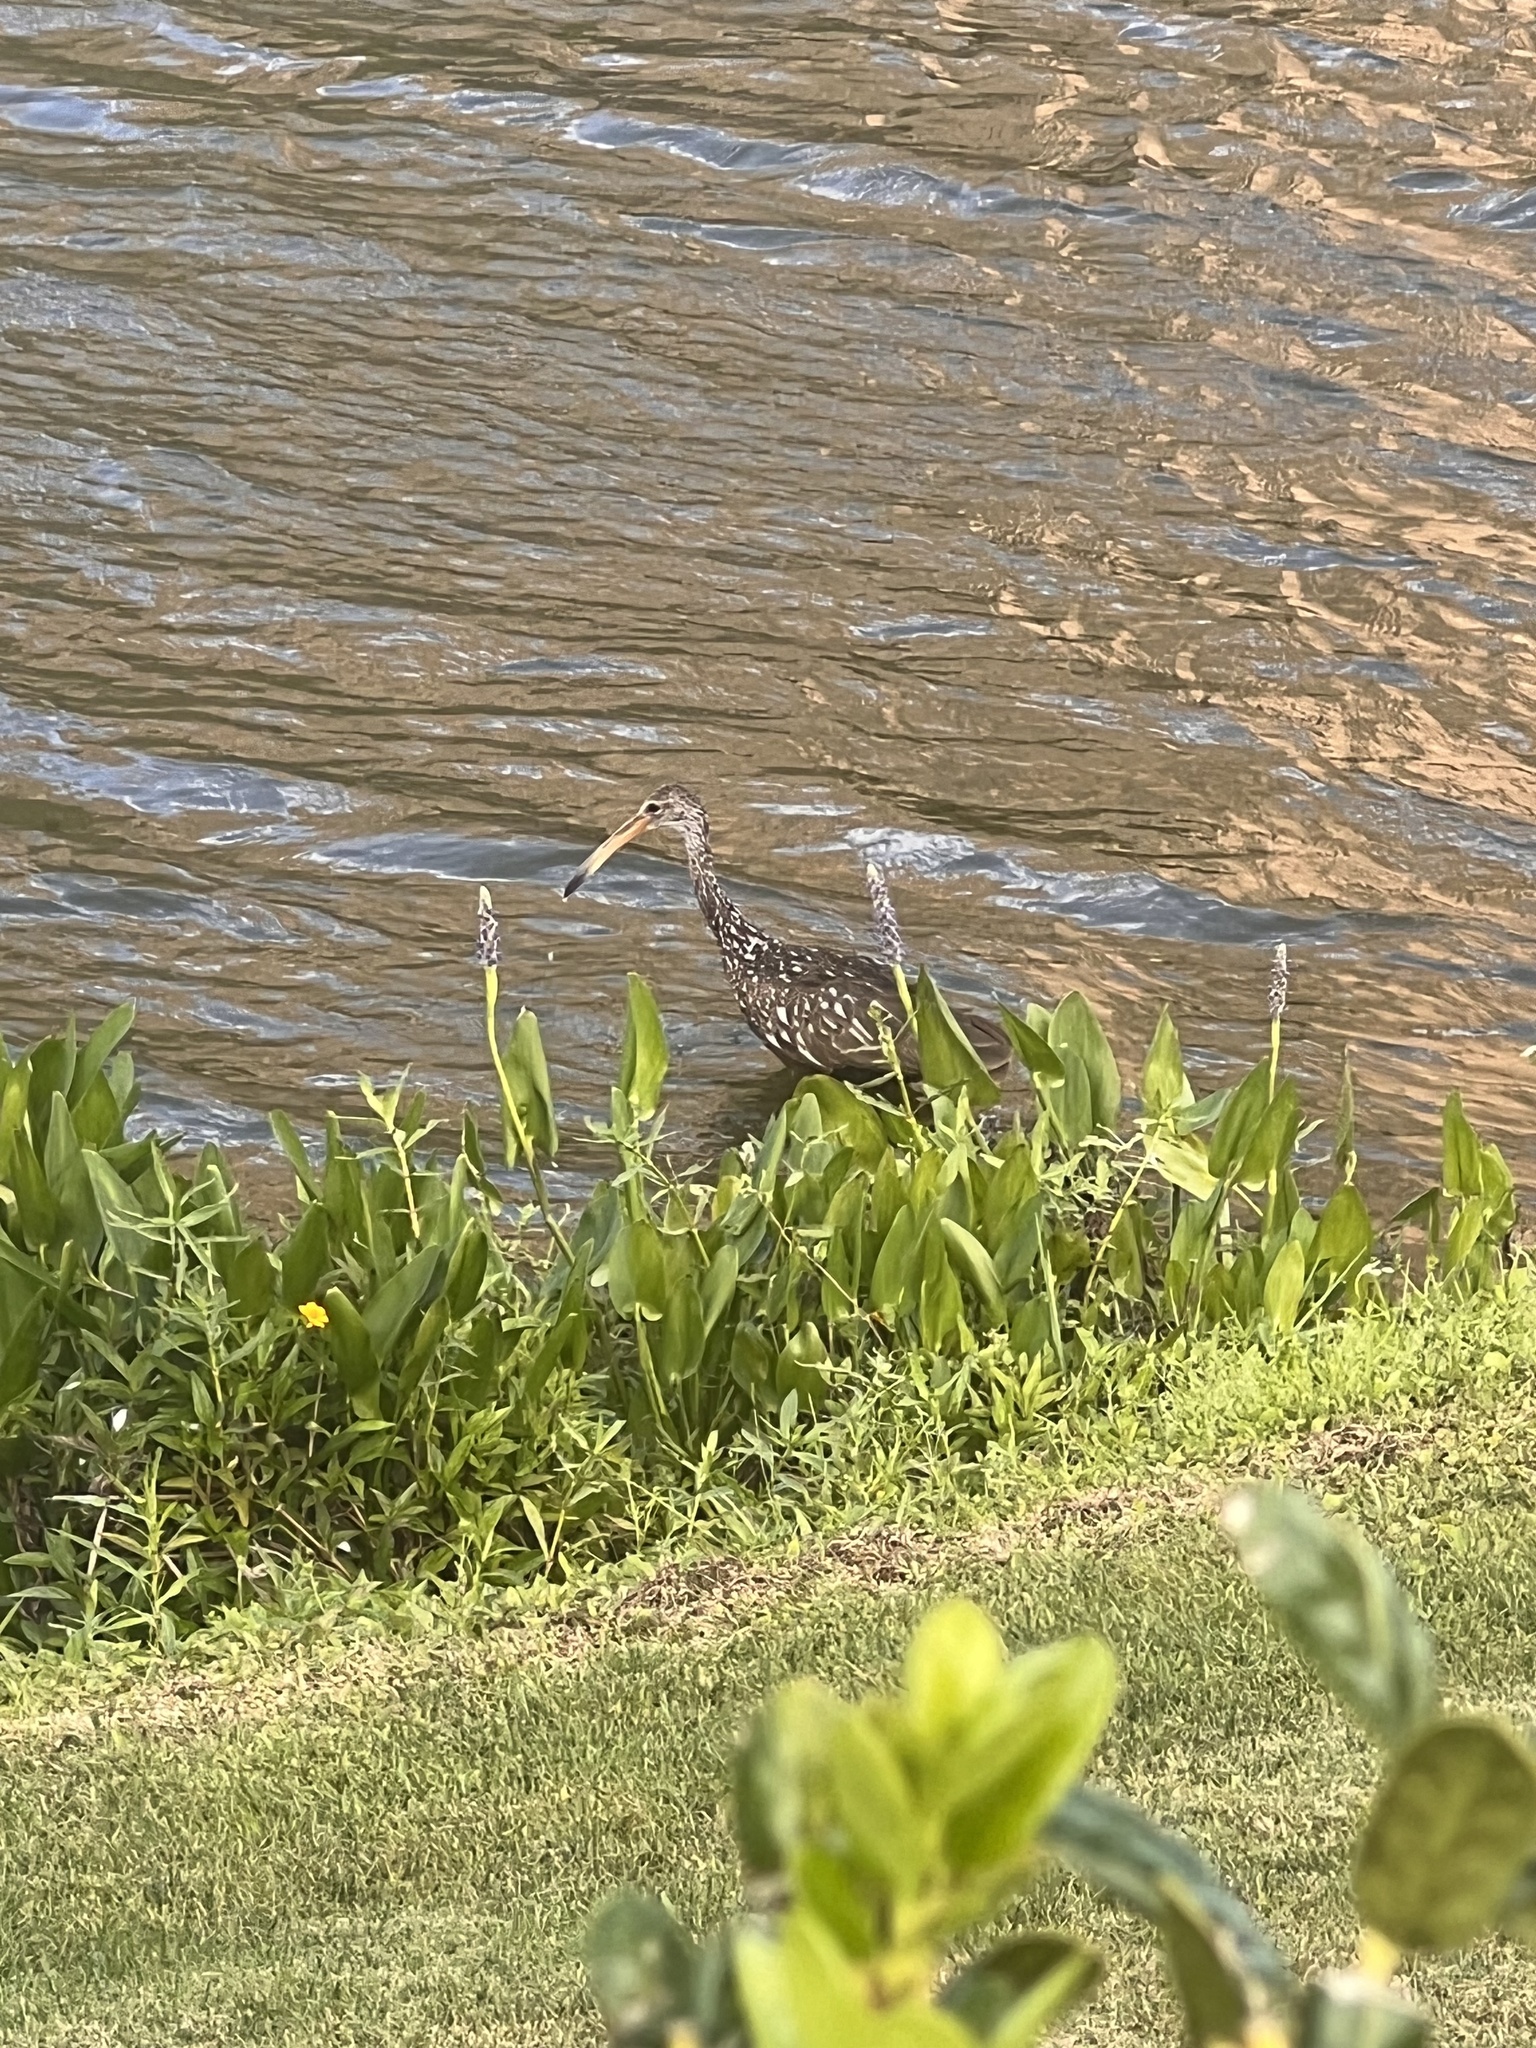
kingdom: Animalia
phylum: Chordata
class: Aves
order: Gruiformes
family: Aramidae
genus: Aramus
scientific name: Aramus guarauna
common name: Limpkin
